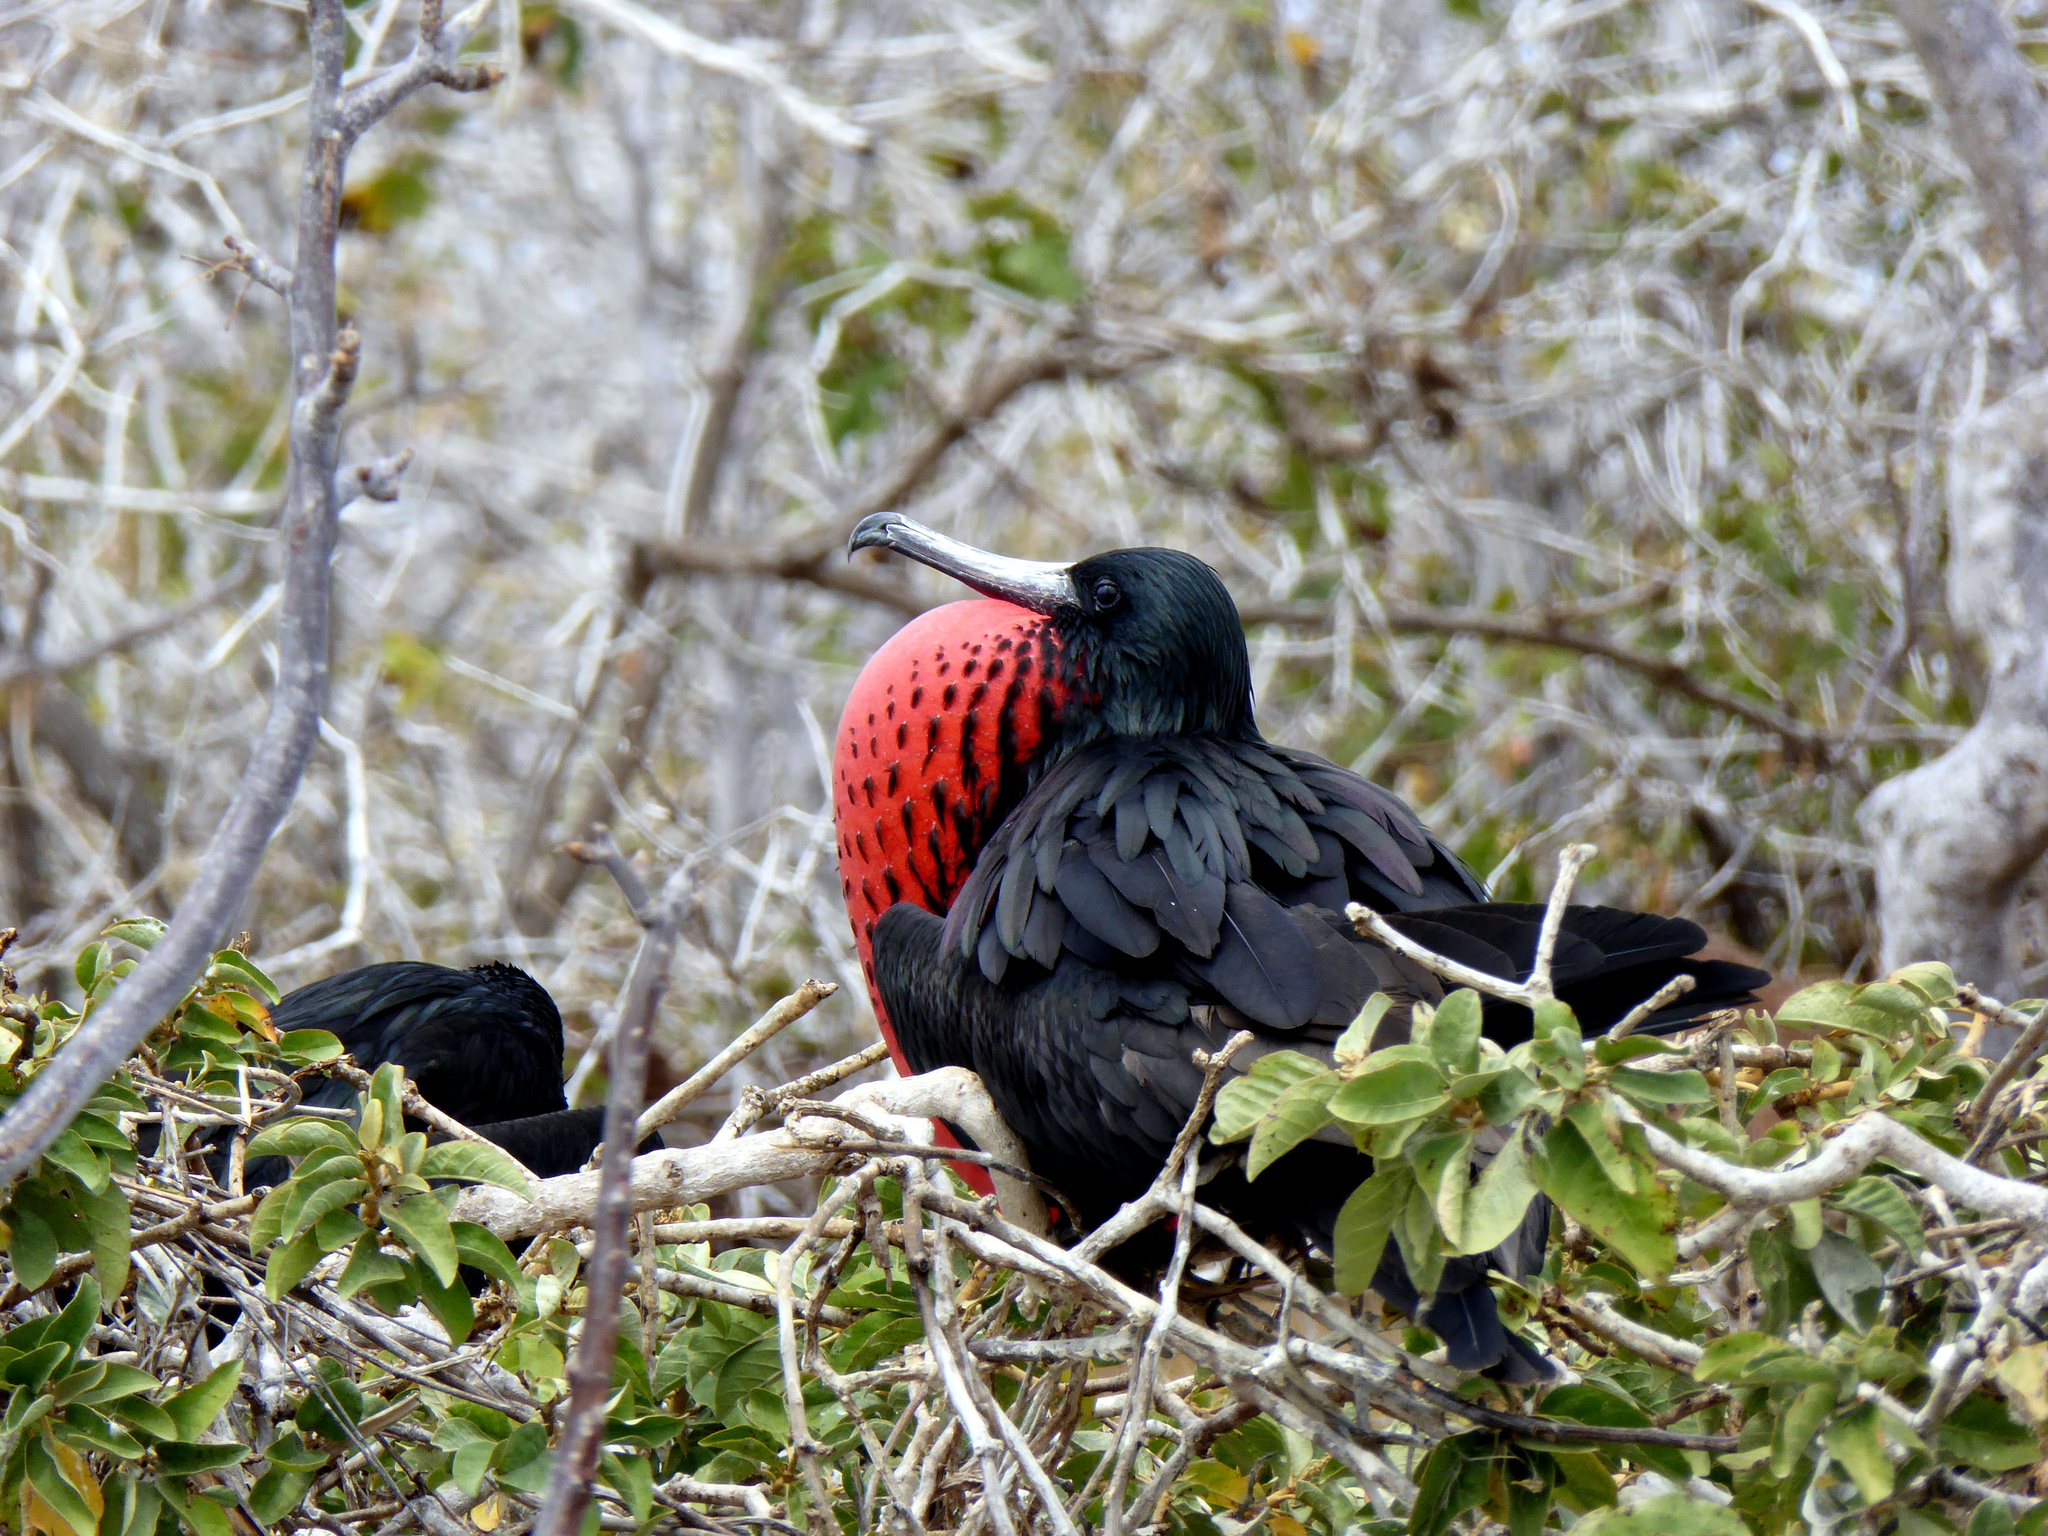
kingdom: Animalia
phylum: Chordata
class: Aves
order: Suliformes
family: Fregatidae
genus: Fregata
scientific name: Fregata minor
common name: Great frigatebird
